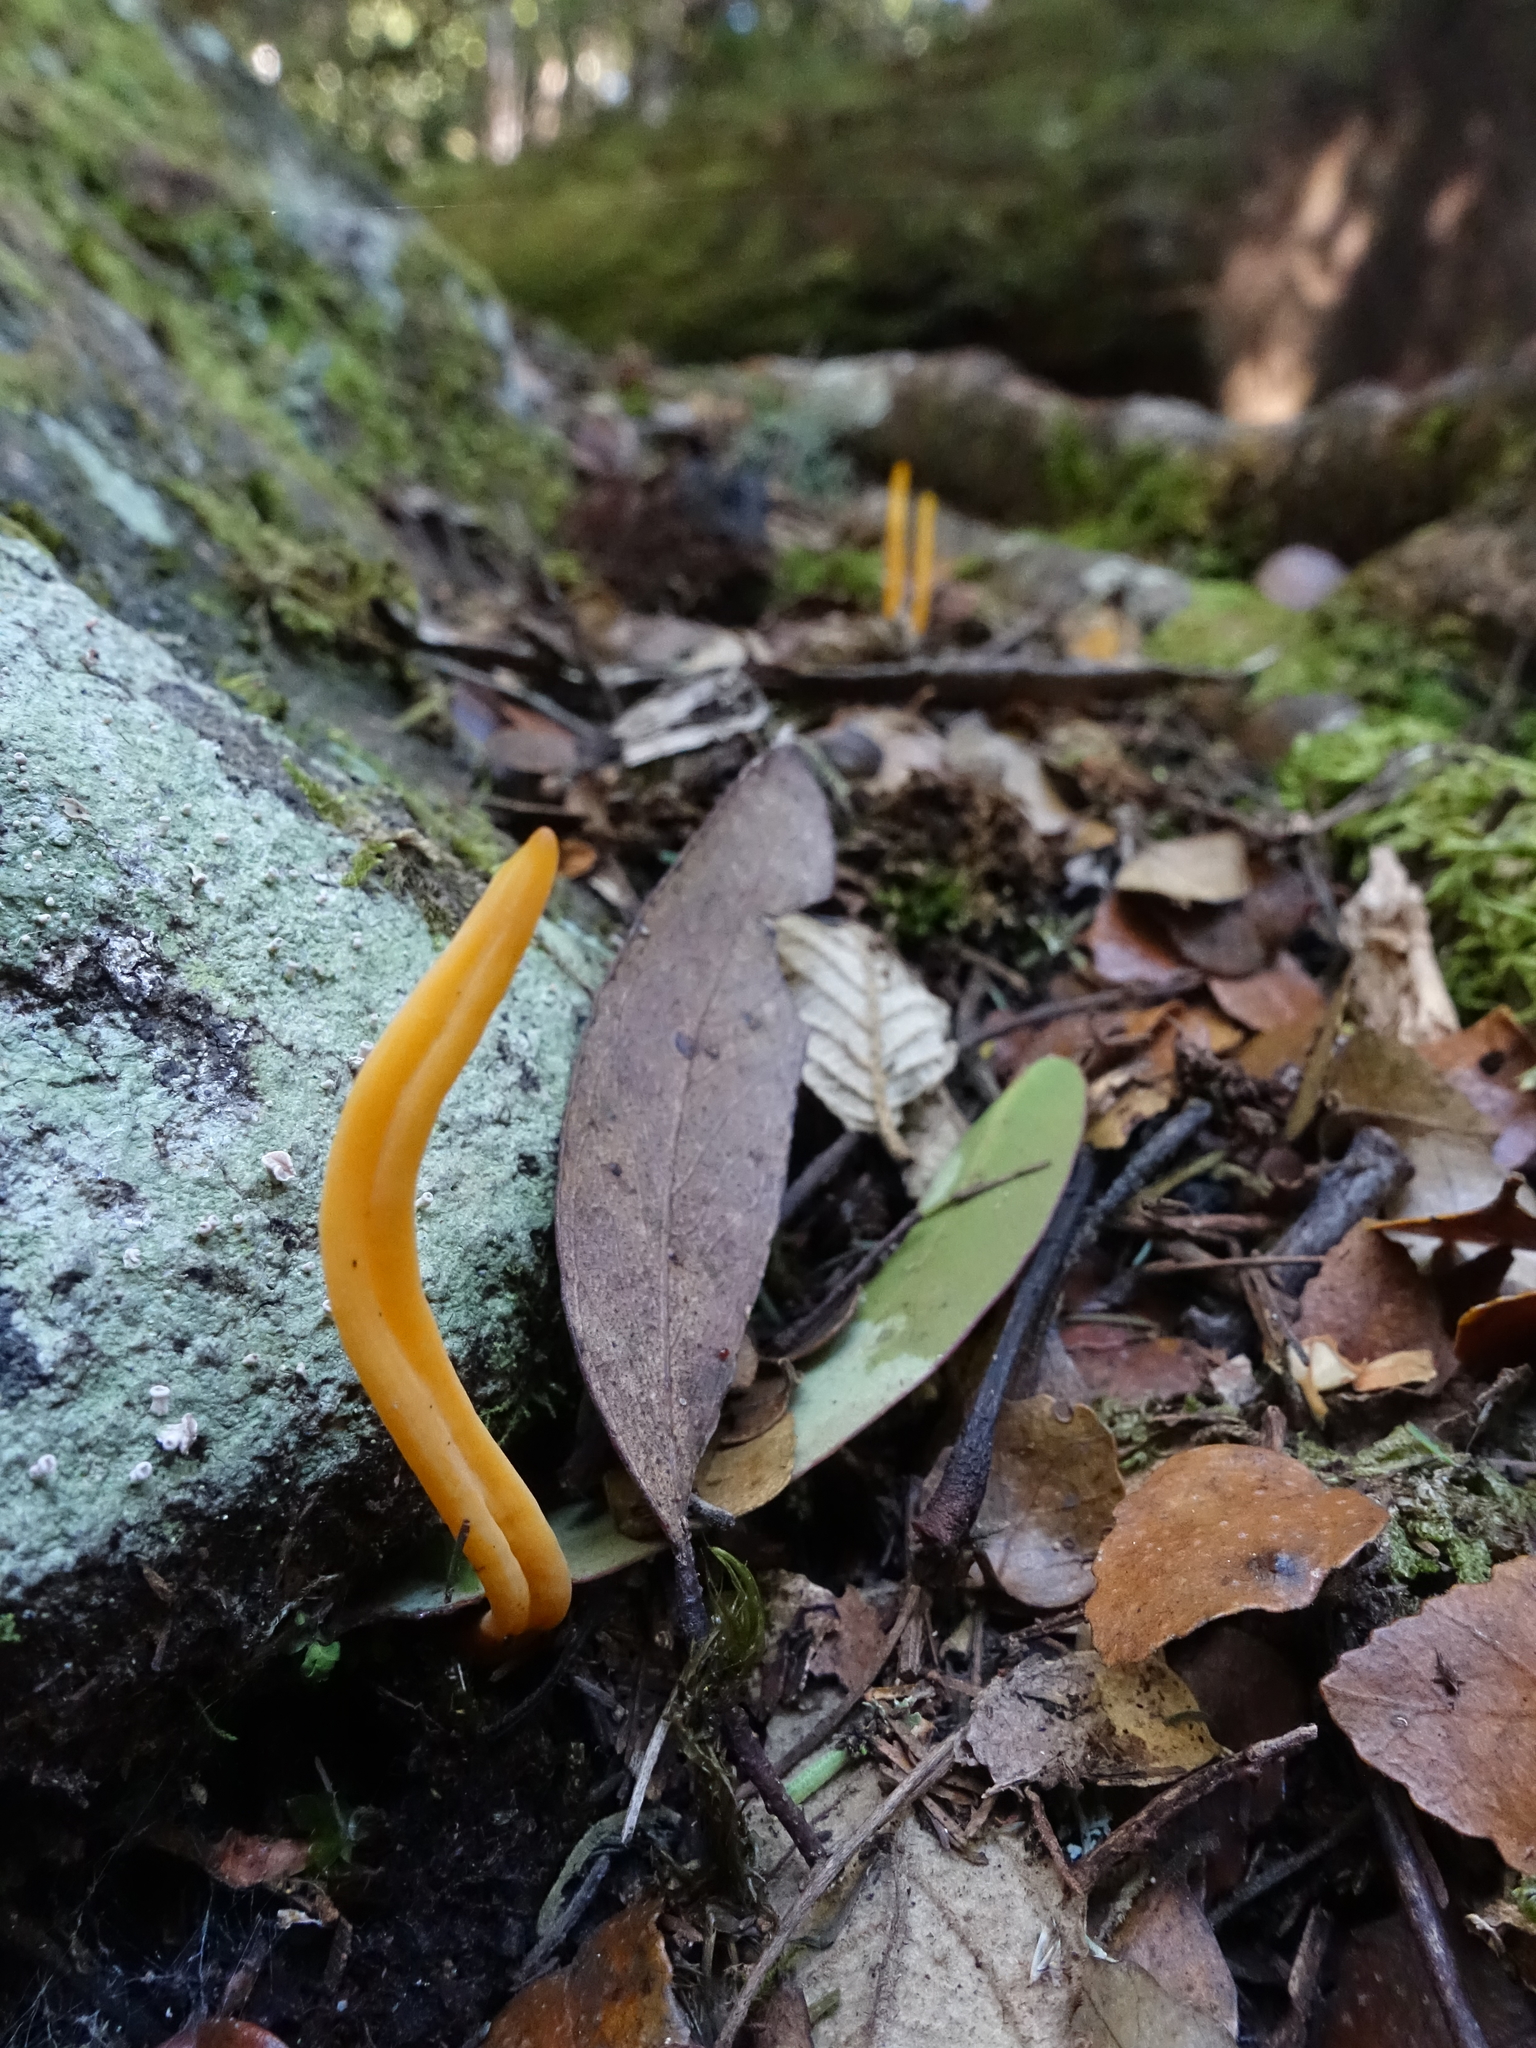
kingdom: Fungi
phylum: Basidiomycota
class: Agaricomycetes
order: Agaricales
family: Clavariaceae
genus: Clavulinopsis
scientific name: Clavulinopsis amoena
